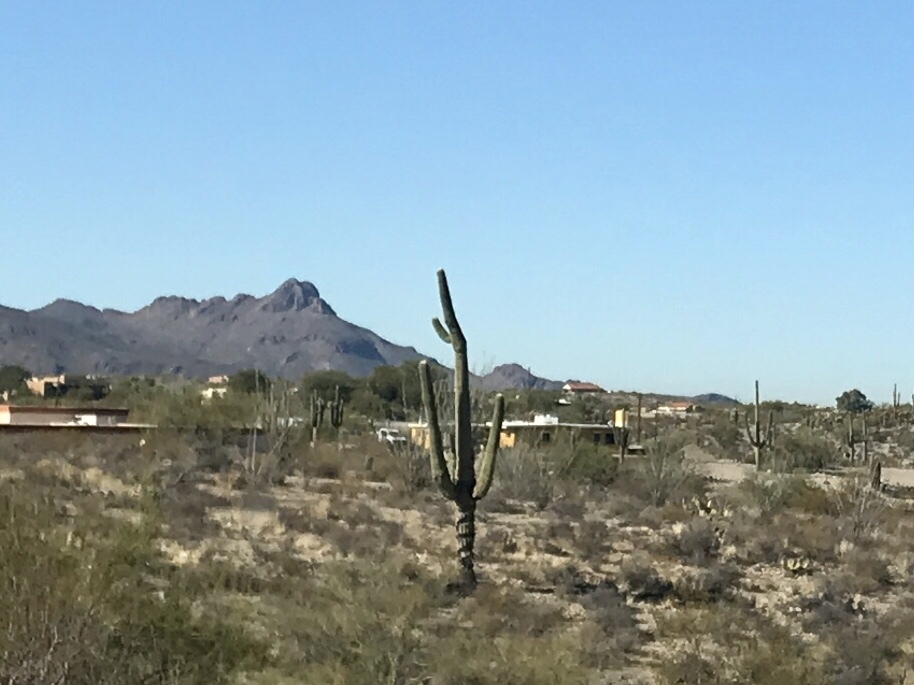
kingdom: Plantae
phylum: Tracheophyta
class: Magnoliopsida
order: Caryophyllales
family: Cactaceae
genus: Carnegiea
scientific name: Carnegiea gigantea
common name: Saguaro
